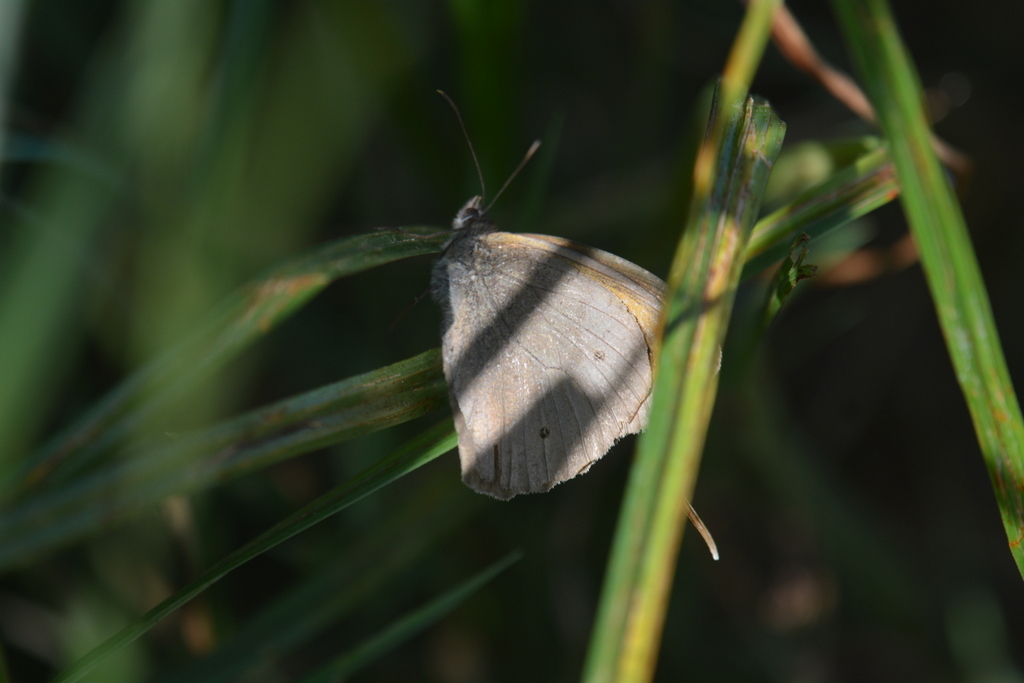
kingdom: Animalia
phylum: Arthropoda
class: Insecta
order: Lepidoptera
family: Nymphalidae
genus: Maniola
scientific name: Maniola jurtina
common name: Meadow brown
